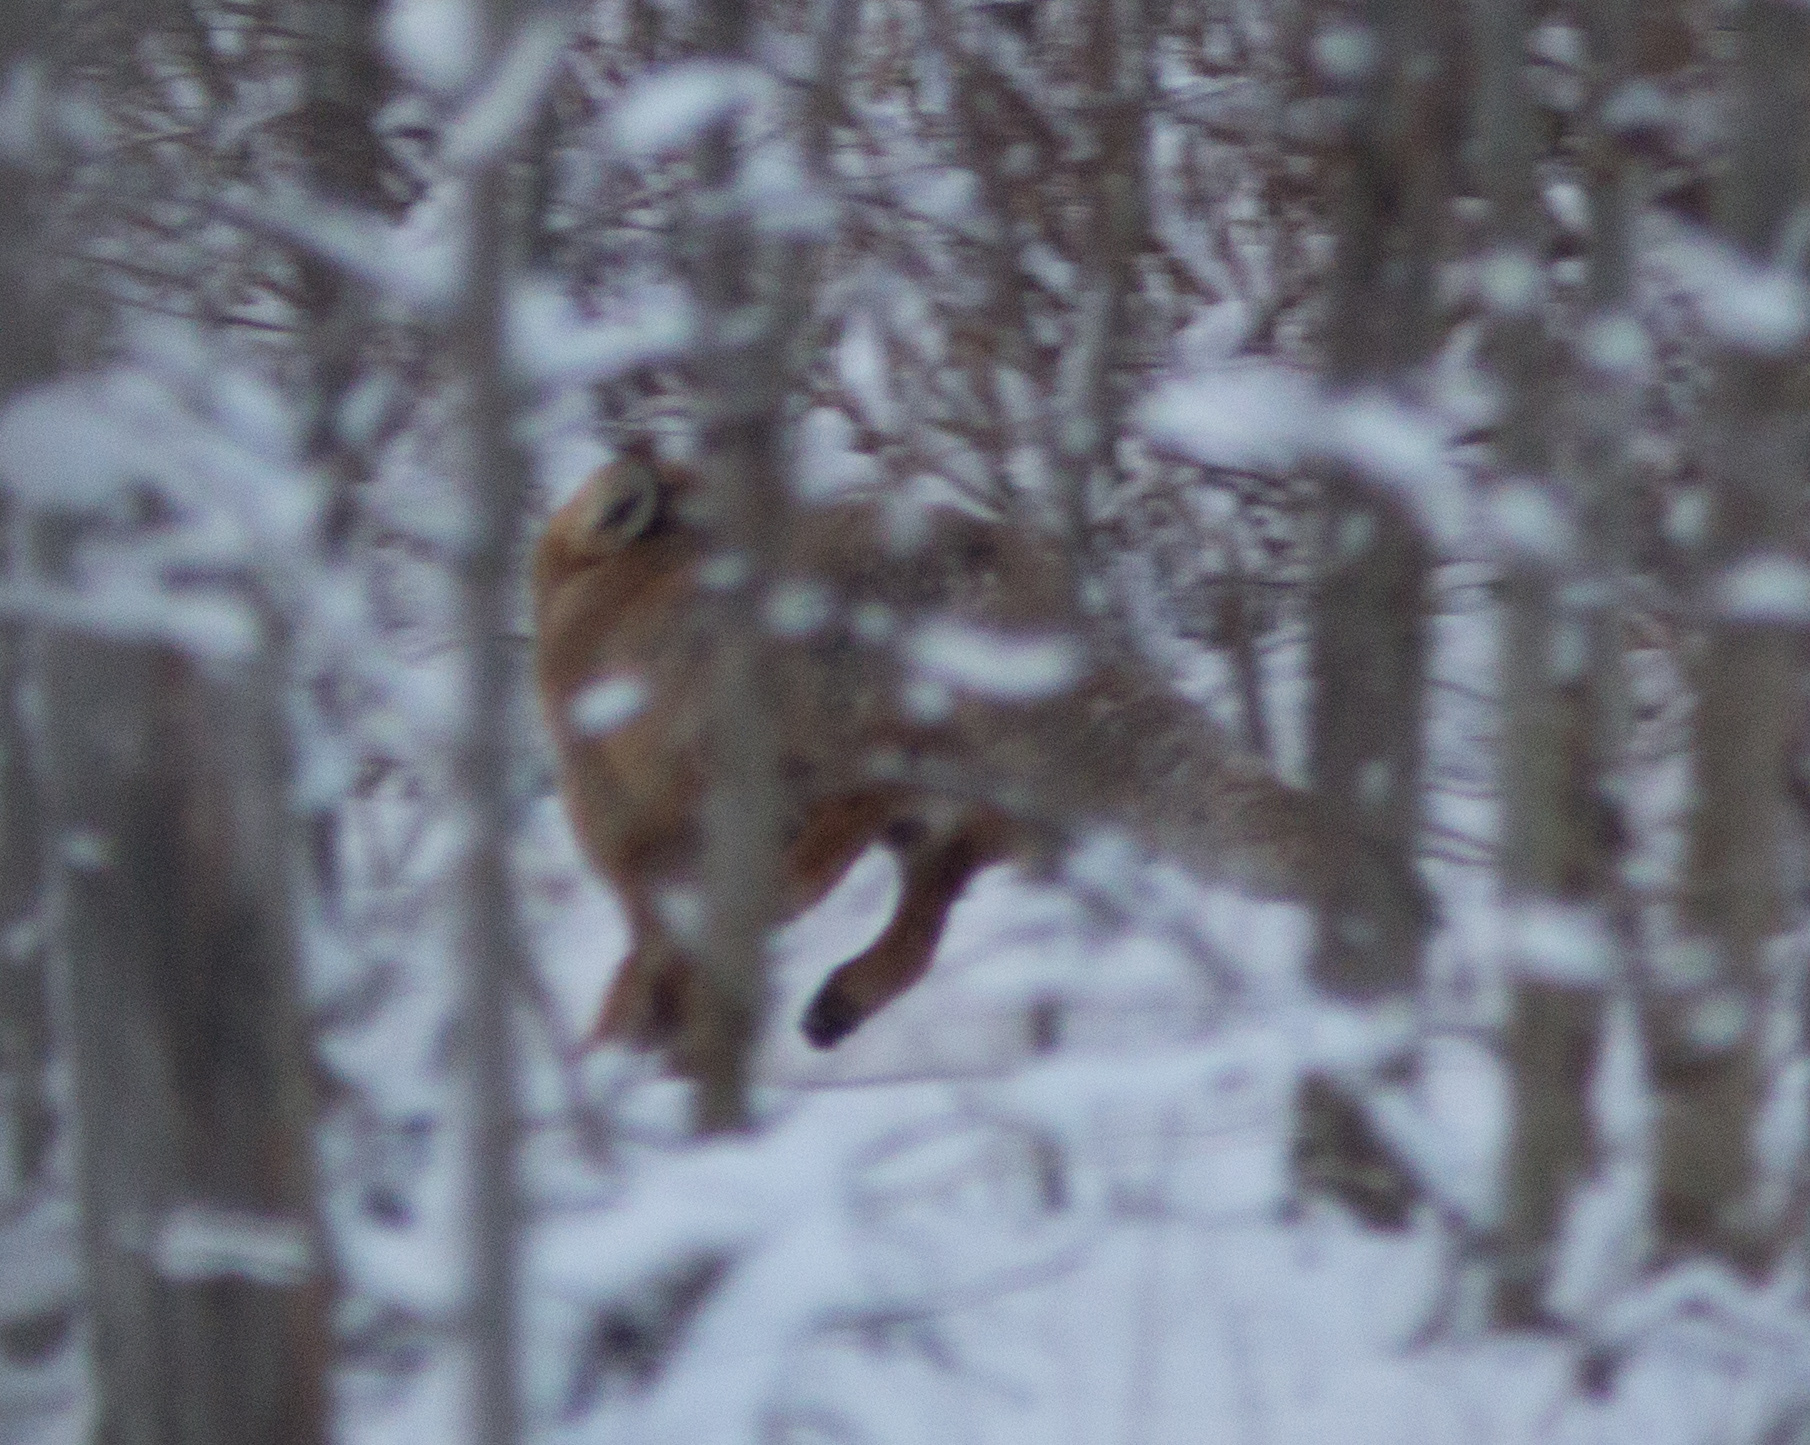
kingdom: Animalia
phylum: Chordata
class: Mammalia
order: Carnivora
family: Canidae
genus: Vulpes
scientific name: Vulpes vulpes
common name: Red fox
